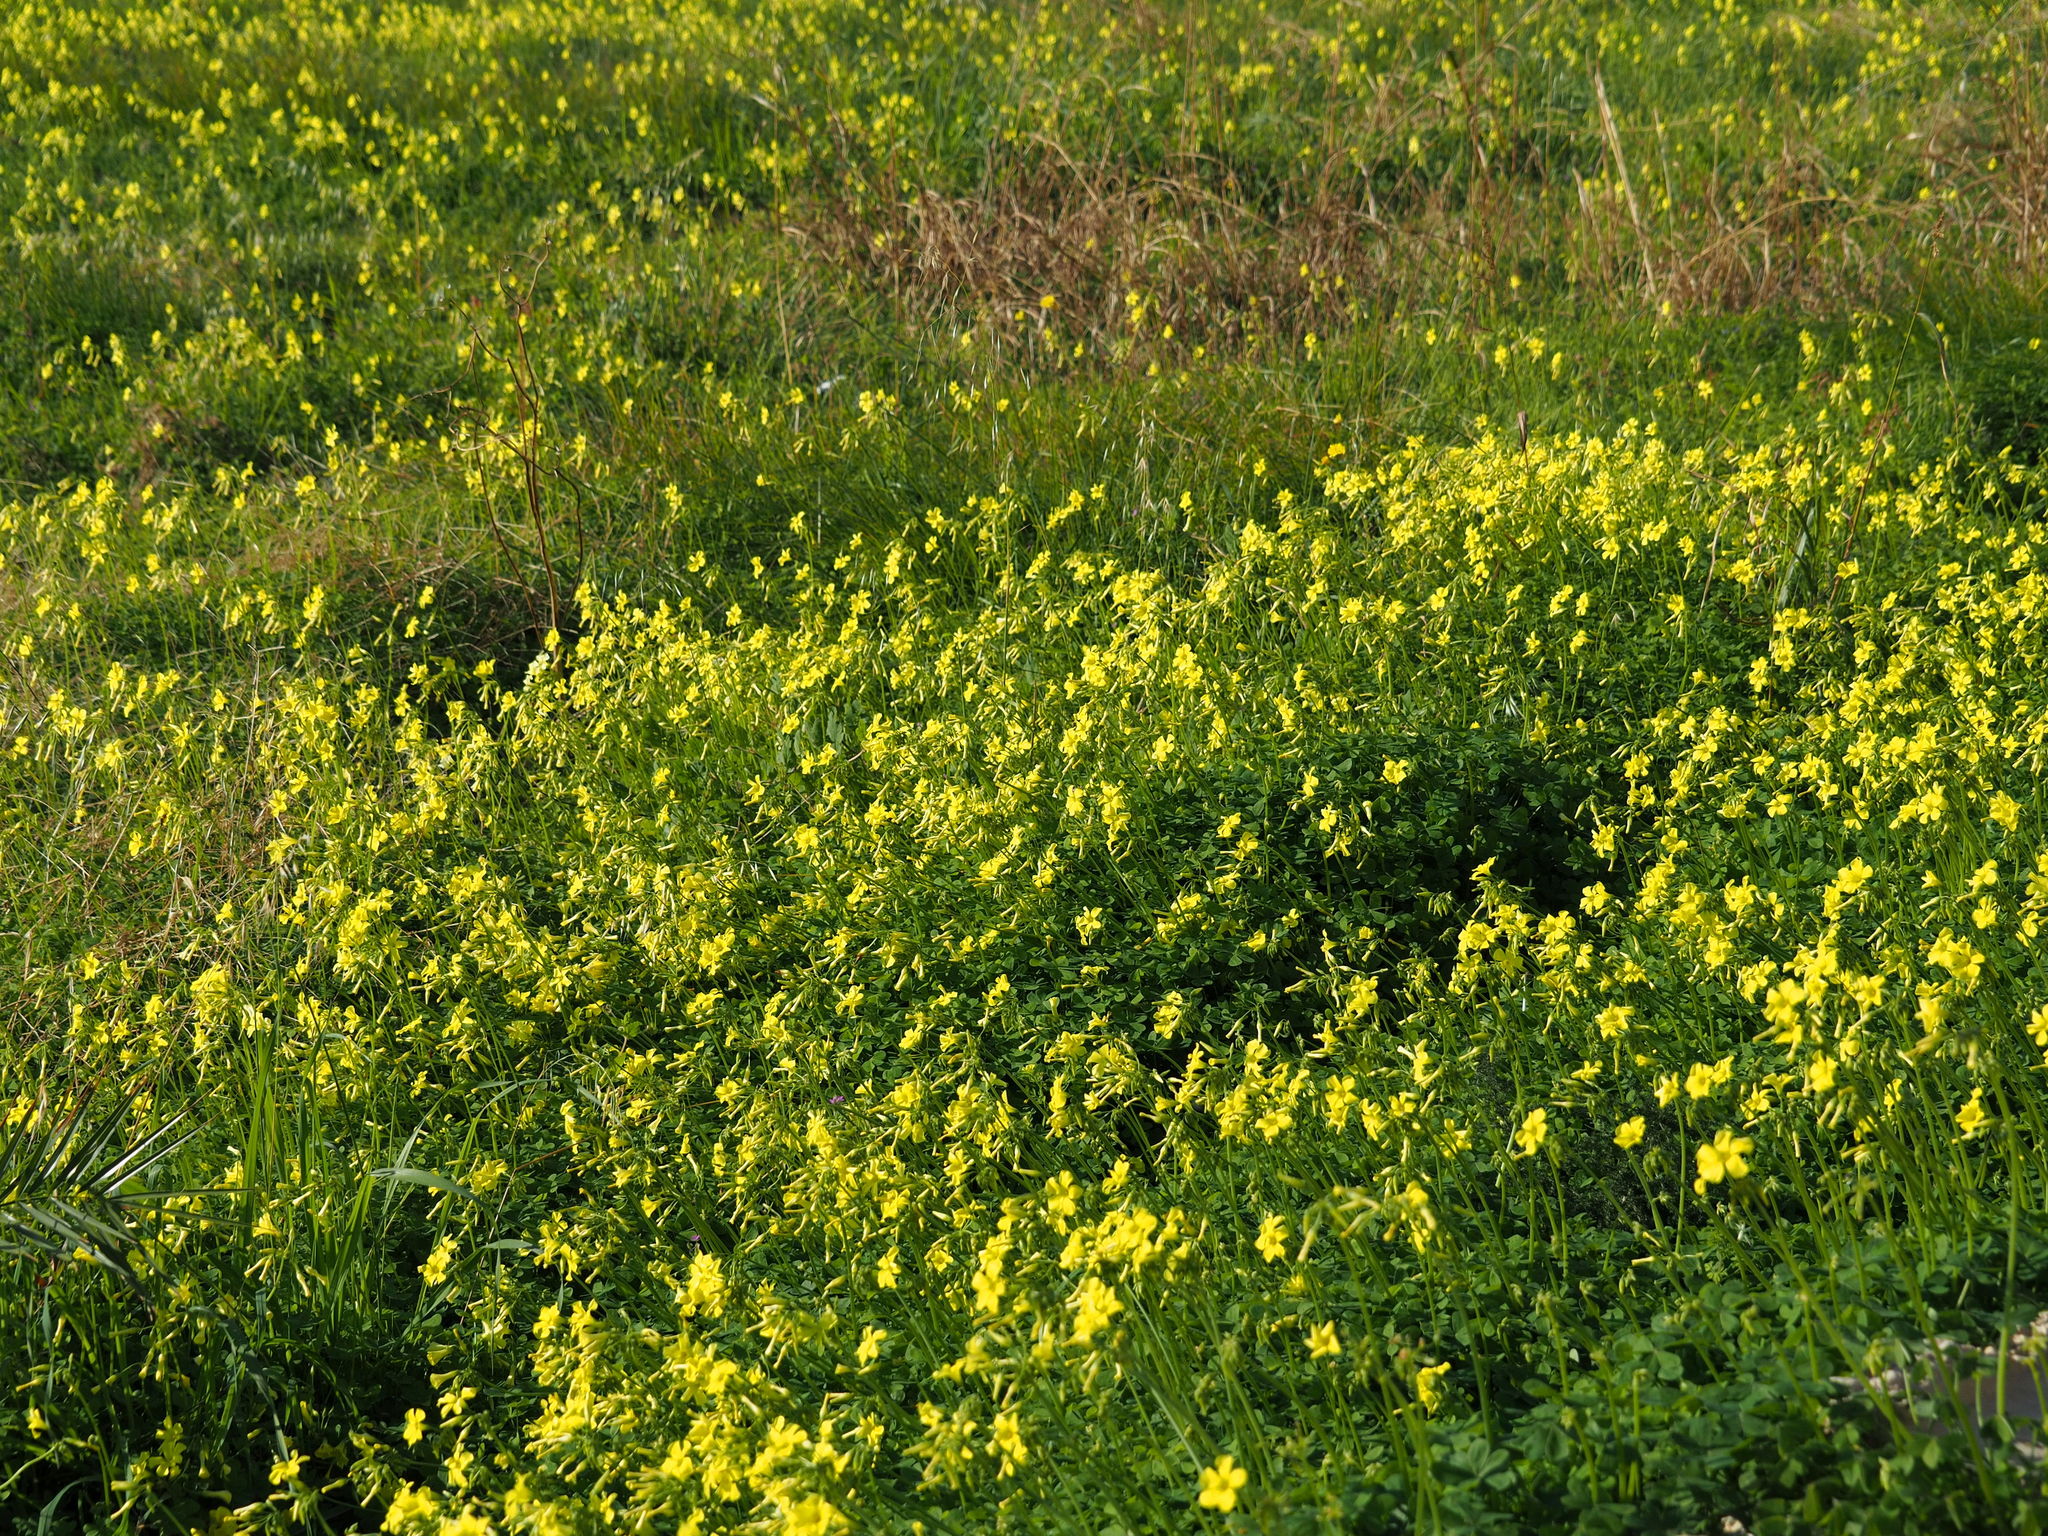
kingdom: Plantae
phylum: Tracheophyta
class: Magnoliopsida
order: Oxalidales
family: Oxalidaceae
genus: Oxalis
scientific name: Oxalis pes-caprae
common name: Bermuda-buttercup
